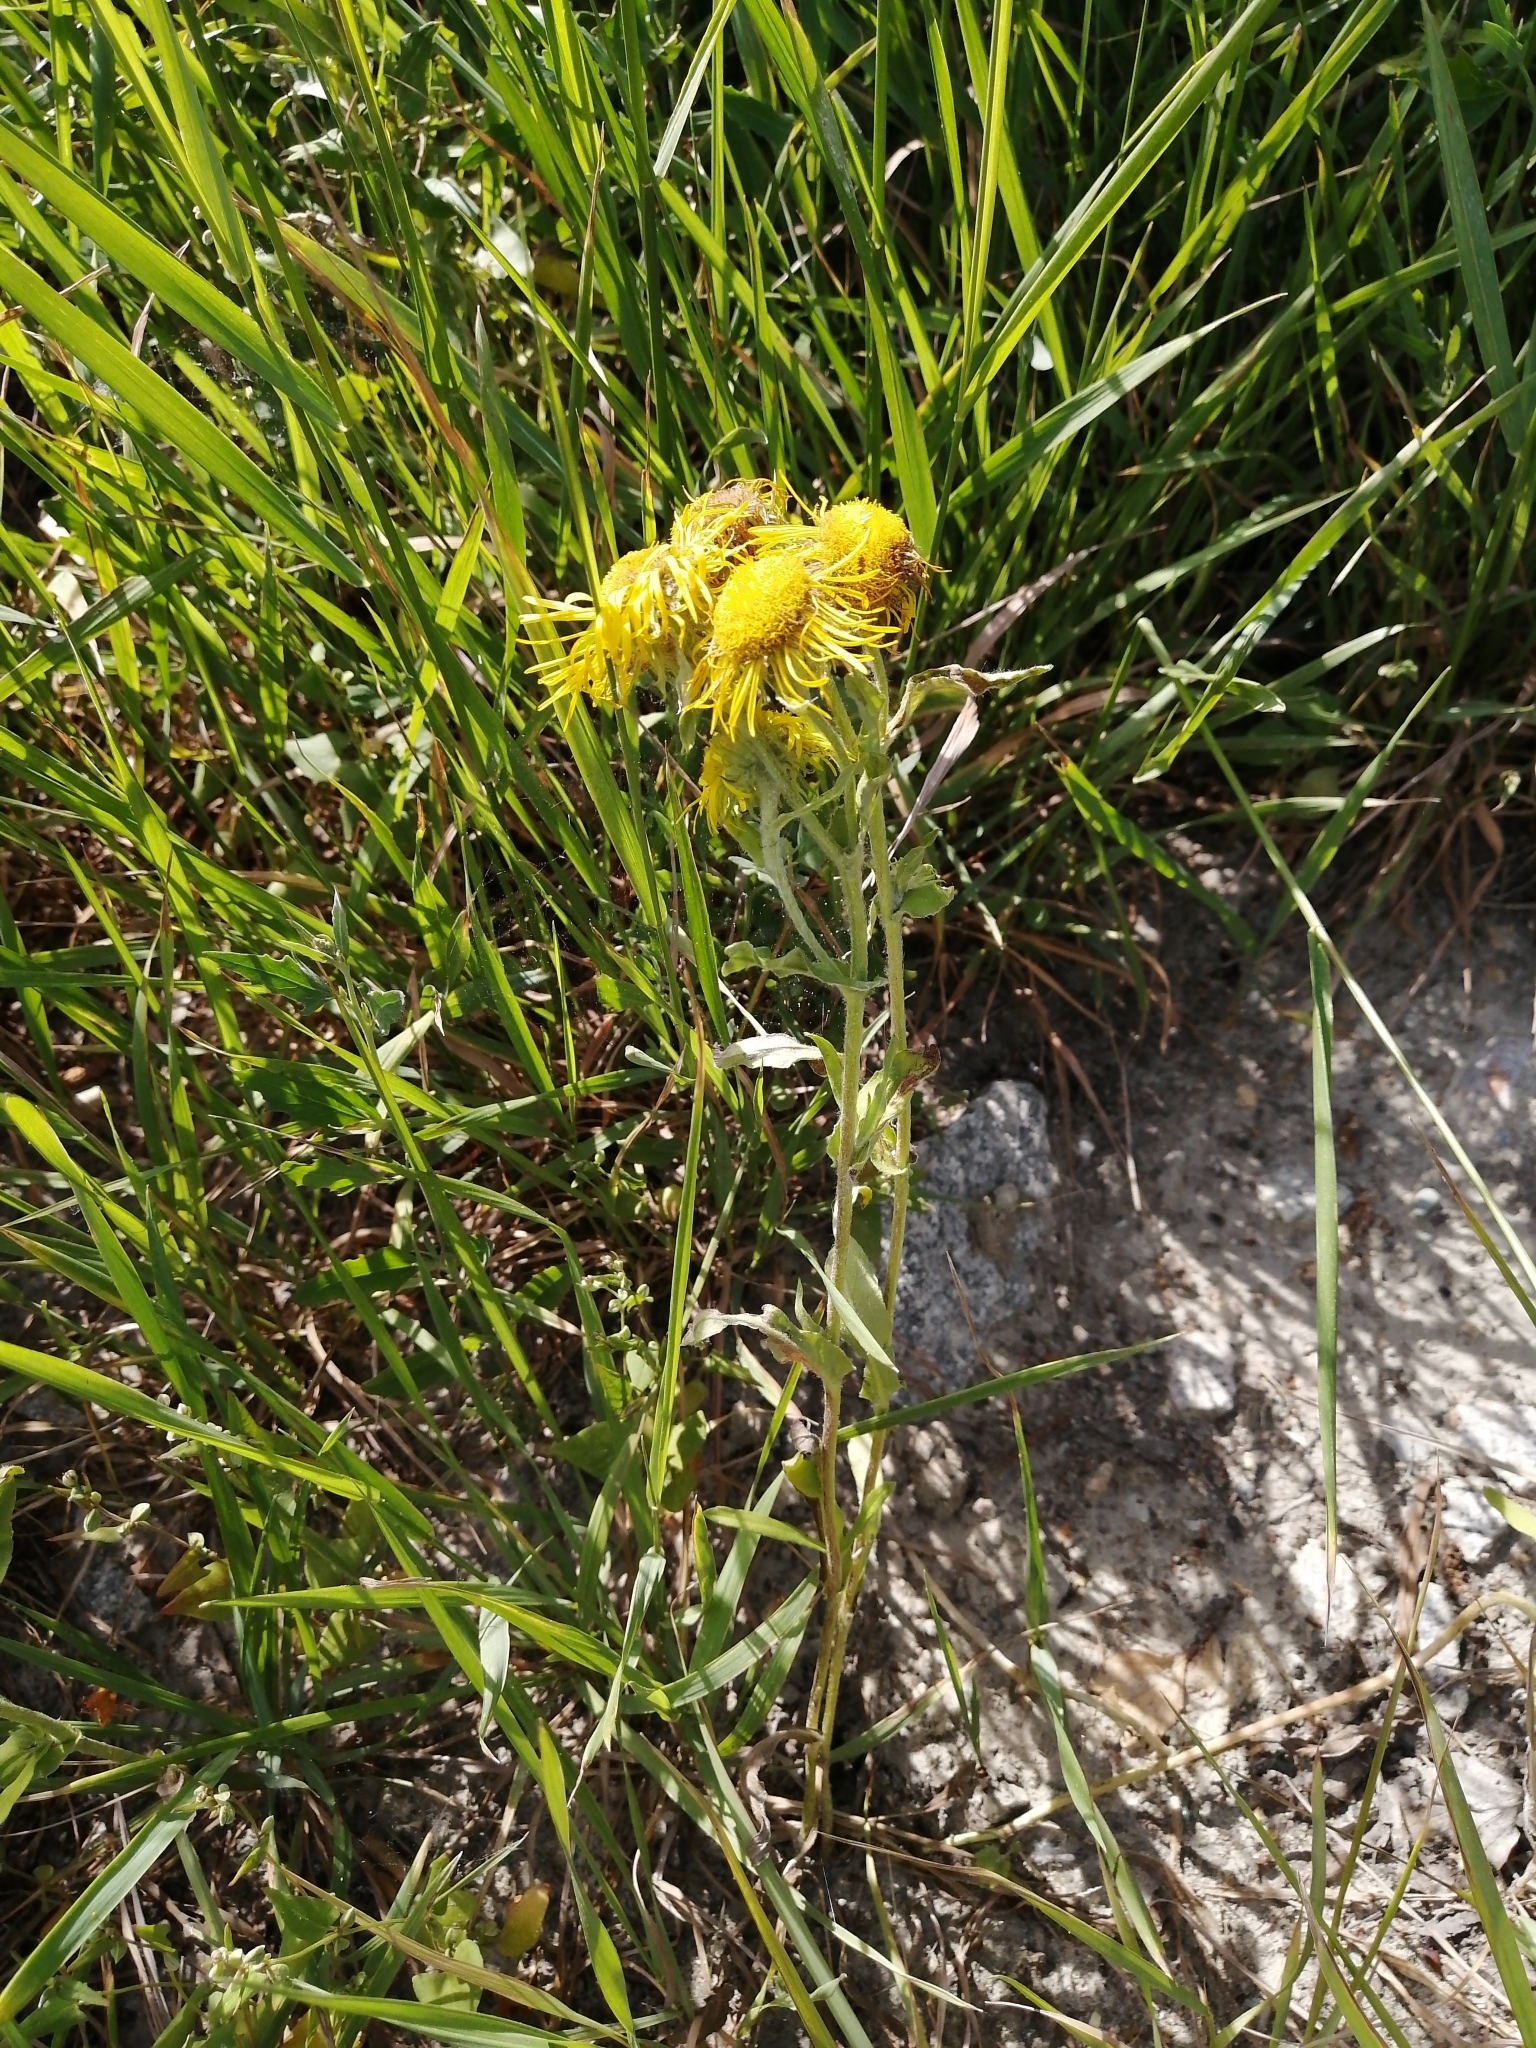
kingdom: Plantae
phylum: Tracheophyta
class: Magnoliopsida
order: Asterales
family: Asteraceae
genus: Pentanema
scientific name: Pentanema britannicum
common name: British elecampane
